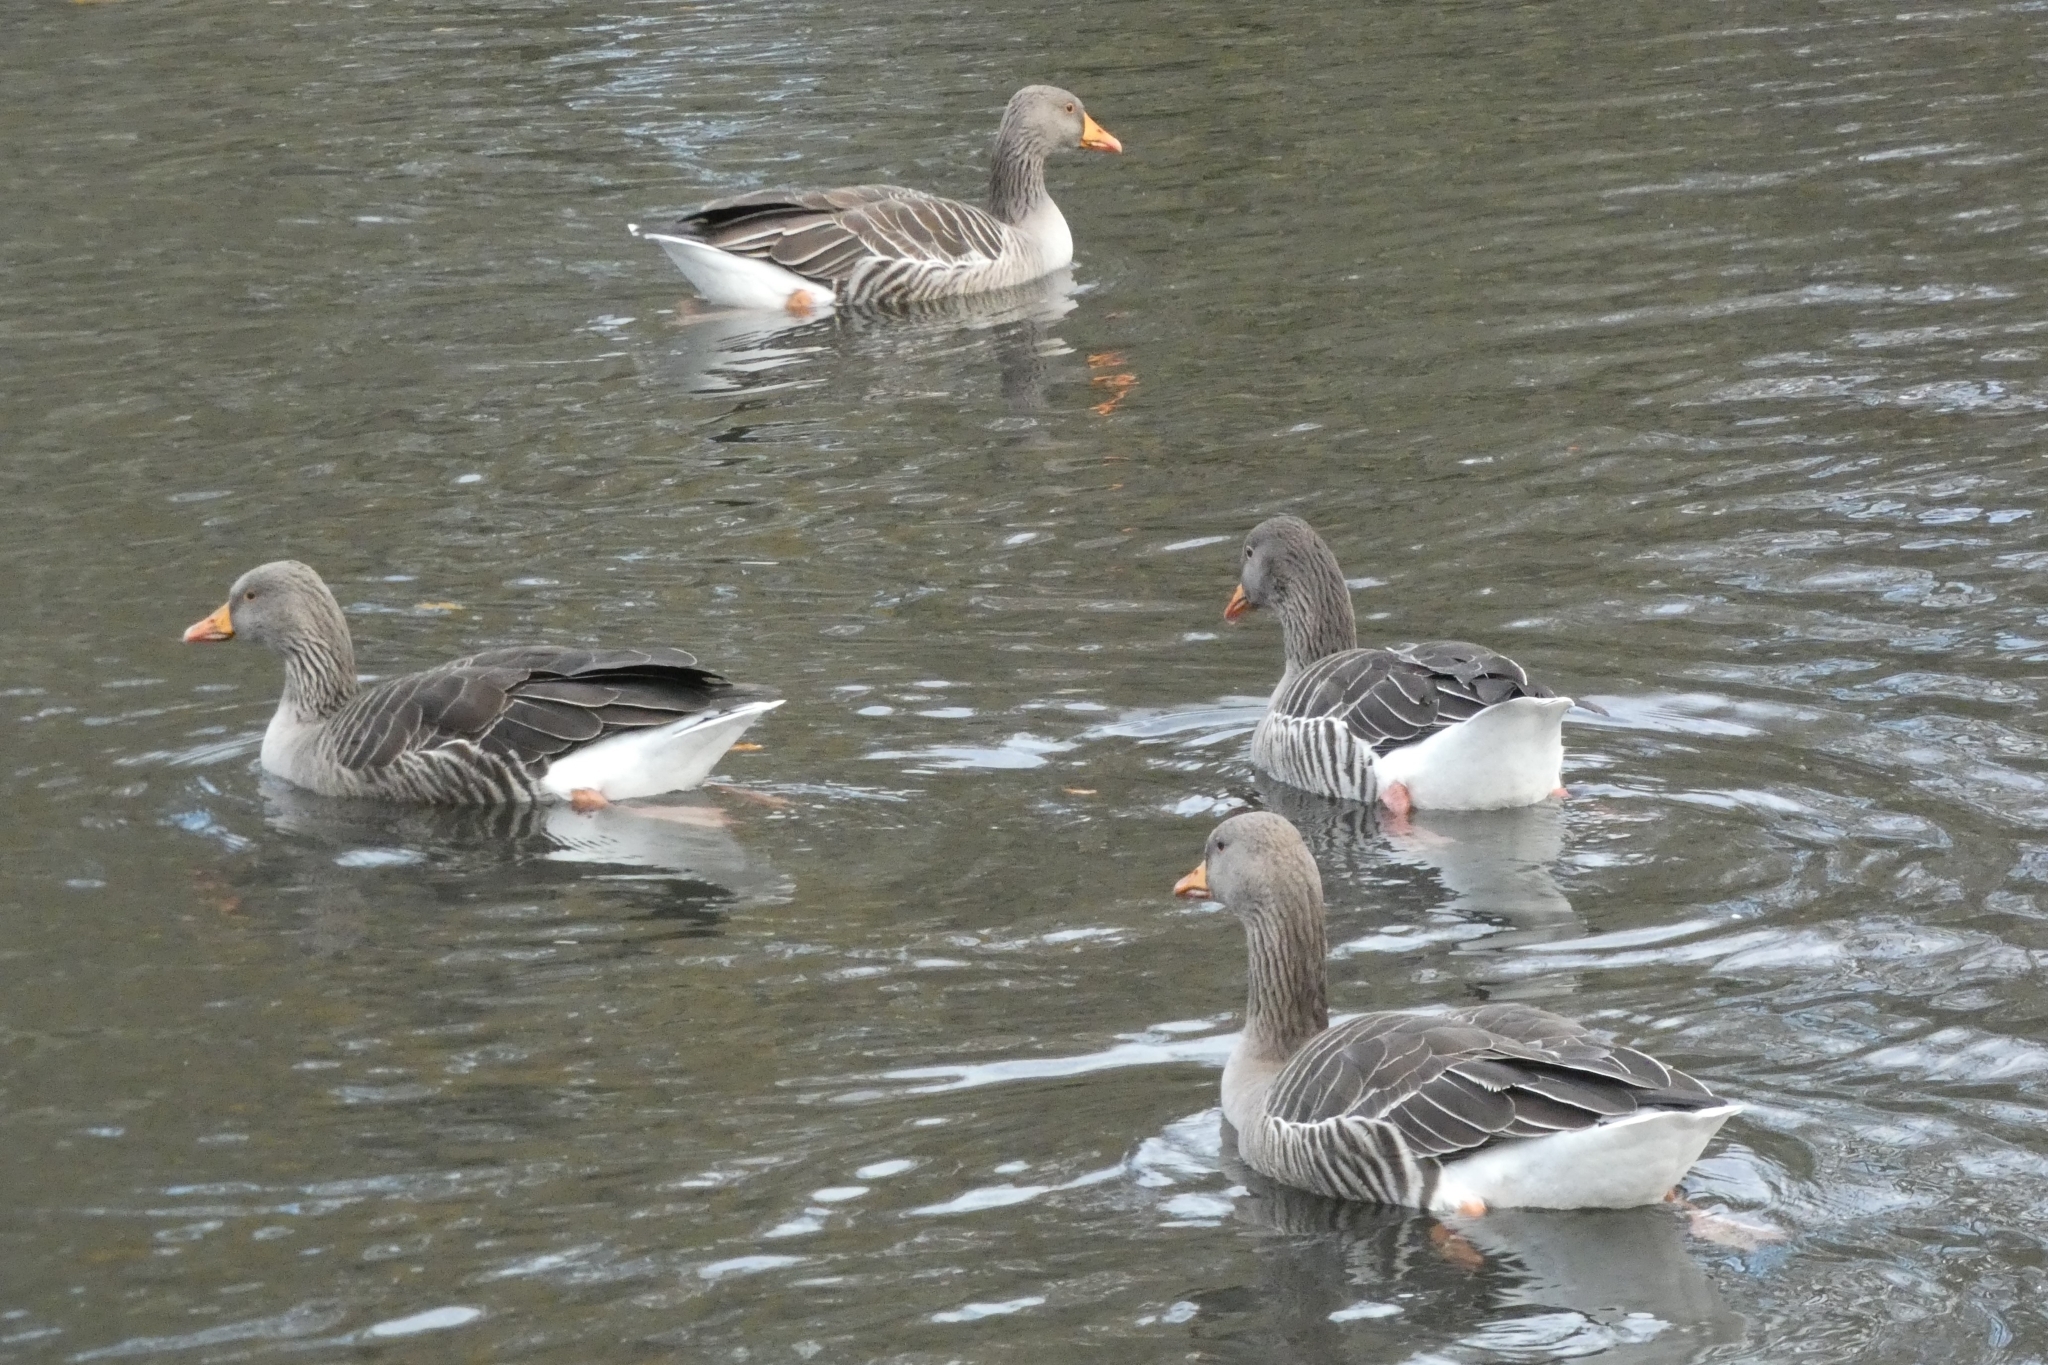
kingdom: Animalia
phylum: Chordata
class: Aves
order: Anseriformes
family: Anatidae
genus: Anser
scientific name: Anser anser
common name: Greylag goose
